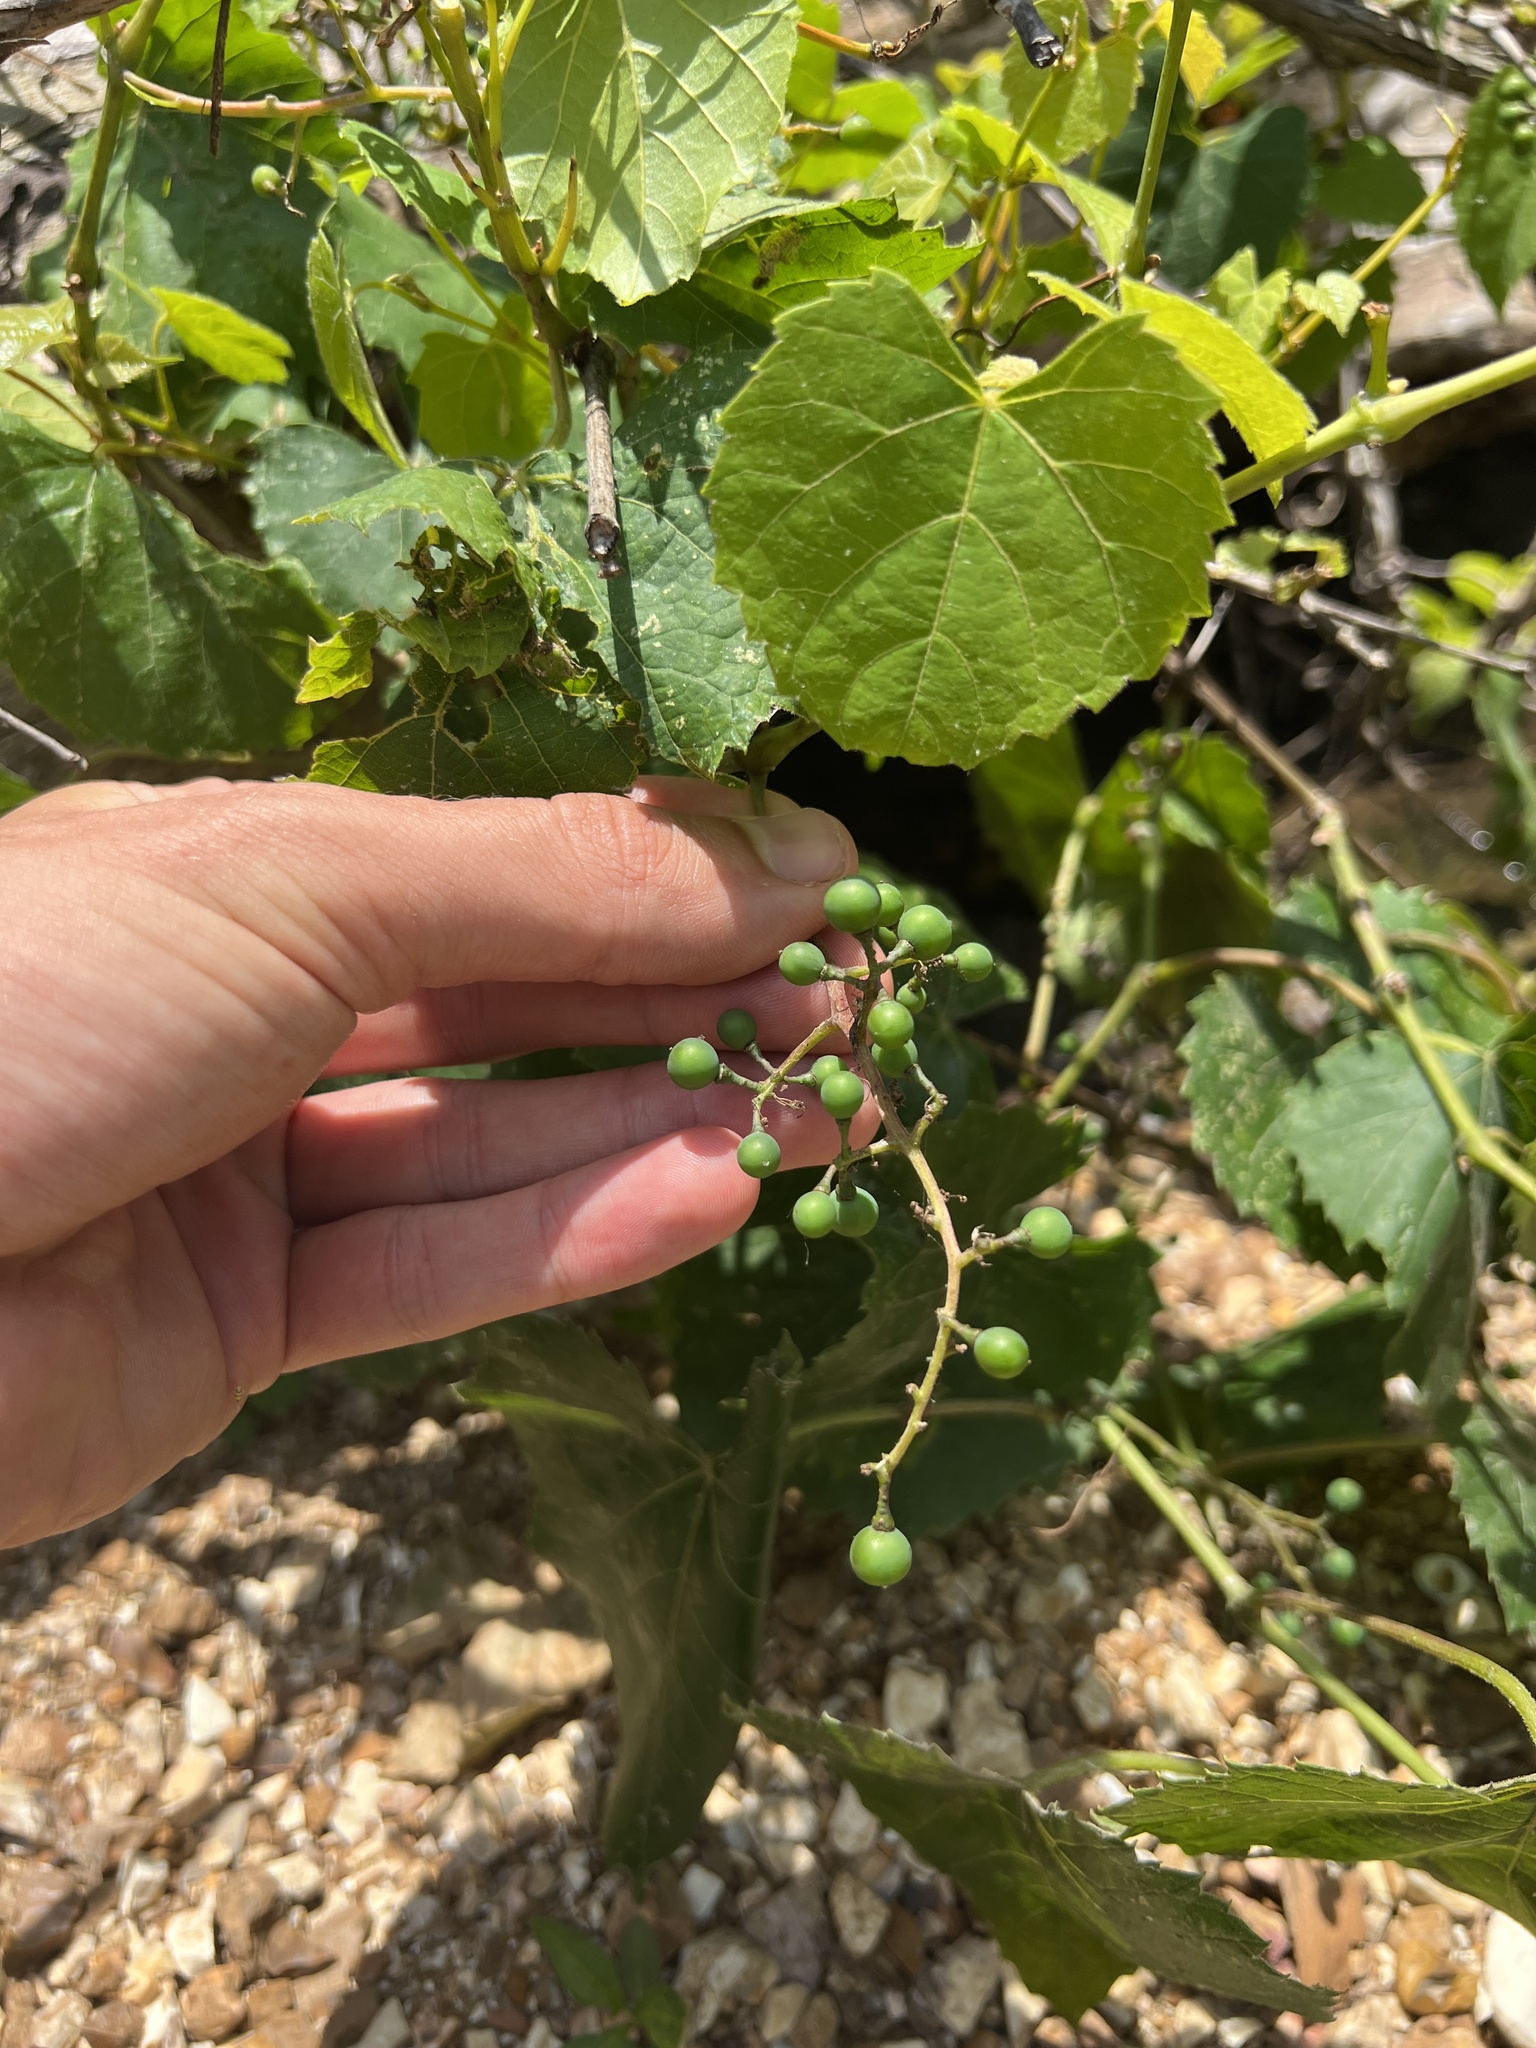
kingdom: Plantae
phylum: Tracheophyta
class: Magnoliopsida
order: Vitales
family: Vitaceae
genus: Ampelopsis
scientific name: Ampelopsis cordata
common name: Heart-leaf ampelopsis
